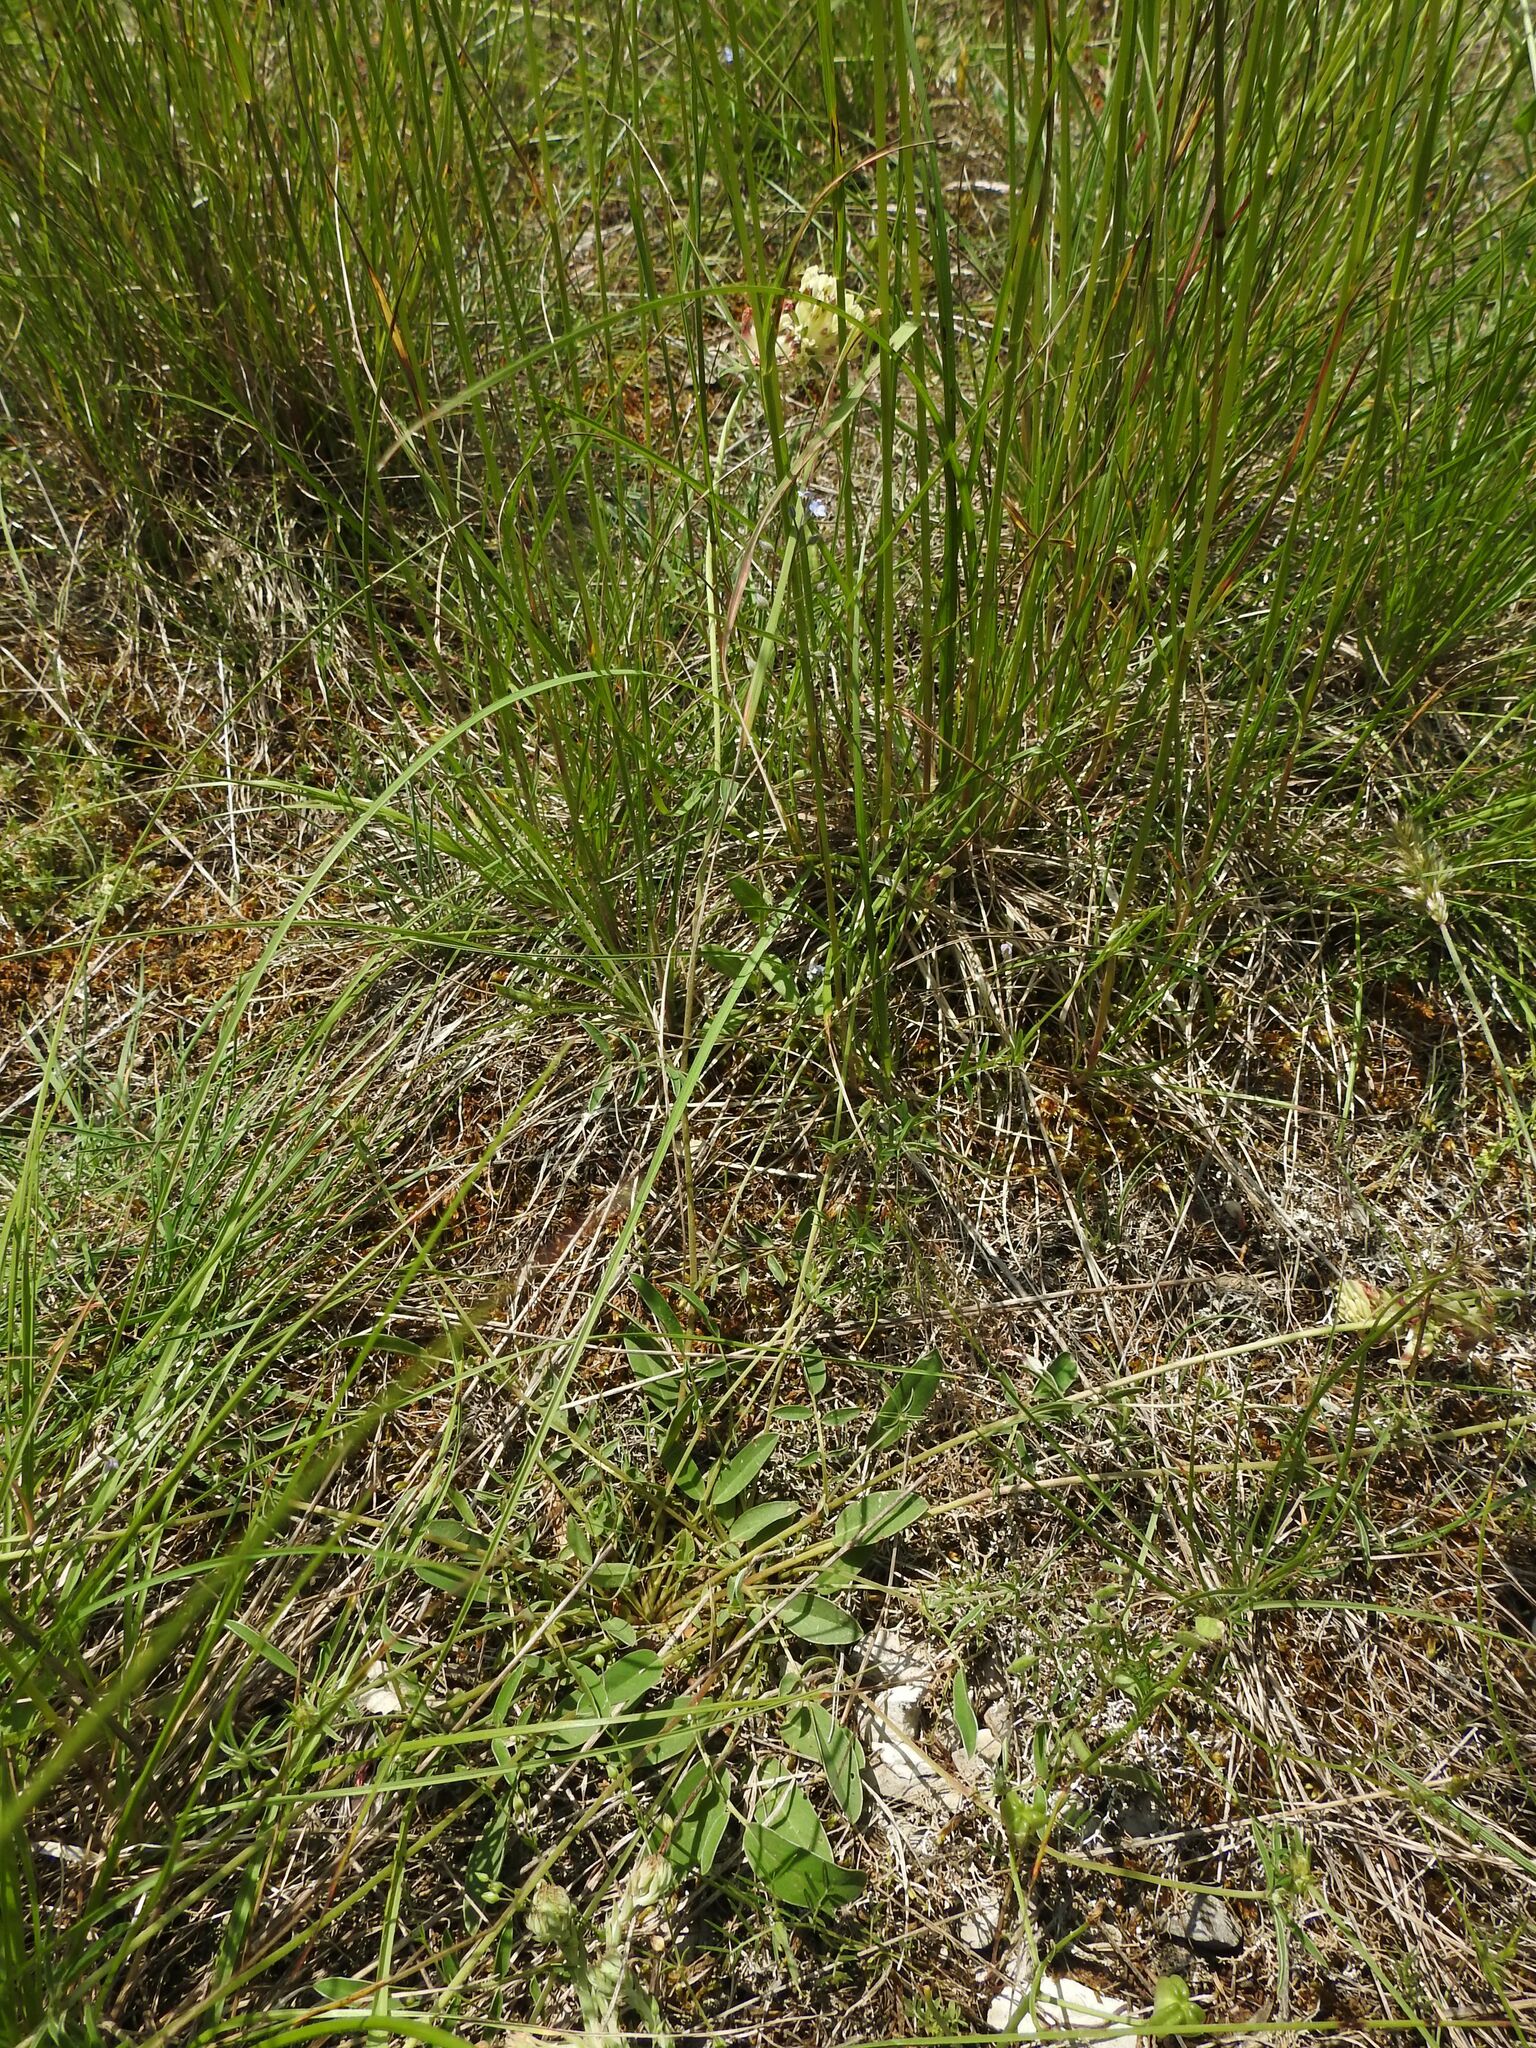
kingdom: Plantae
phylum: Tracheophyta
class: Magnoliopsida
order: Fabales
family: Fabaceae
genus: Anthyllis
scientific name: Anthyllis vulneraria
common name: Kidney vetch
